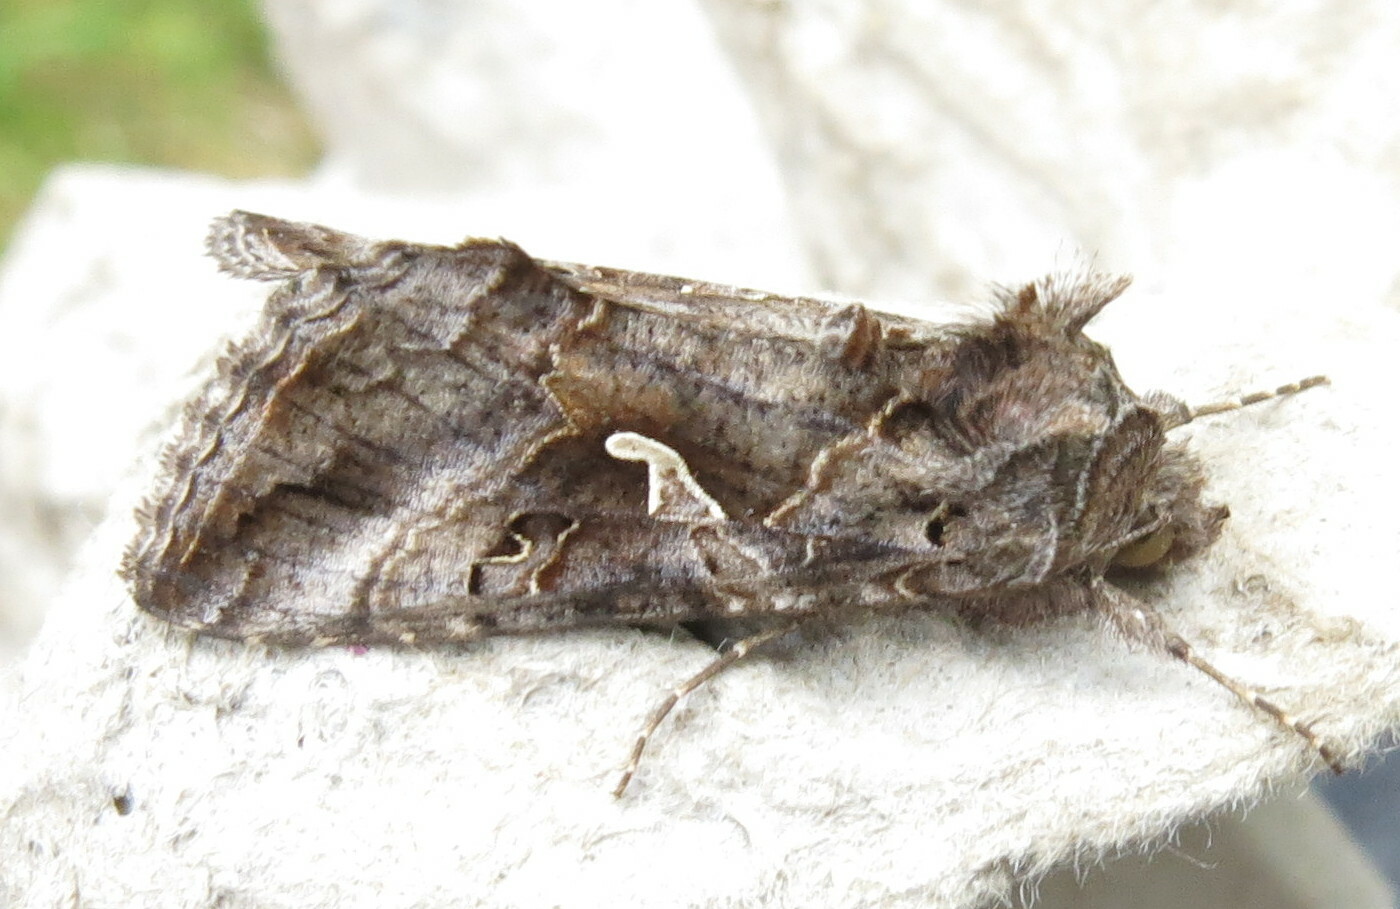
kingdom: Animalia
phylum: Arthropoda
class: Insecta
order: Lepidoptera
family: Noctuidae
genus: Autographa
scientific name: Autographa gamma
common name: Silver y
